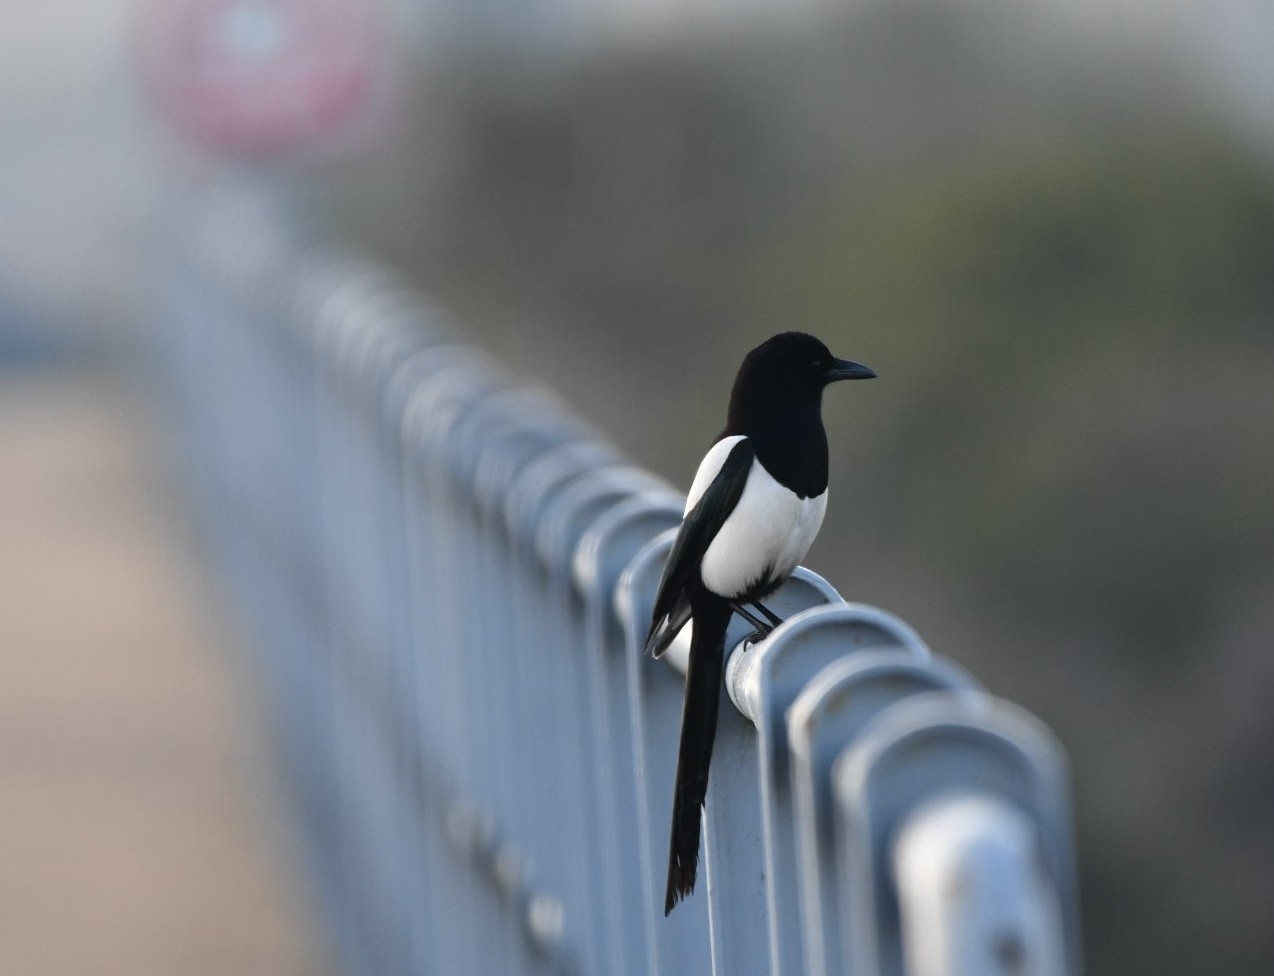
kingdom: Animalia
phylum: Chordata
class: Aves
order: Passeriformes
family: Corvidae
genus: Pica
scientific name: Pica pica
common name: Eurasian magpie
